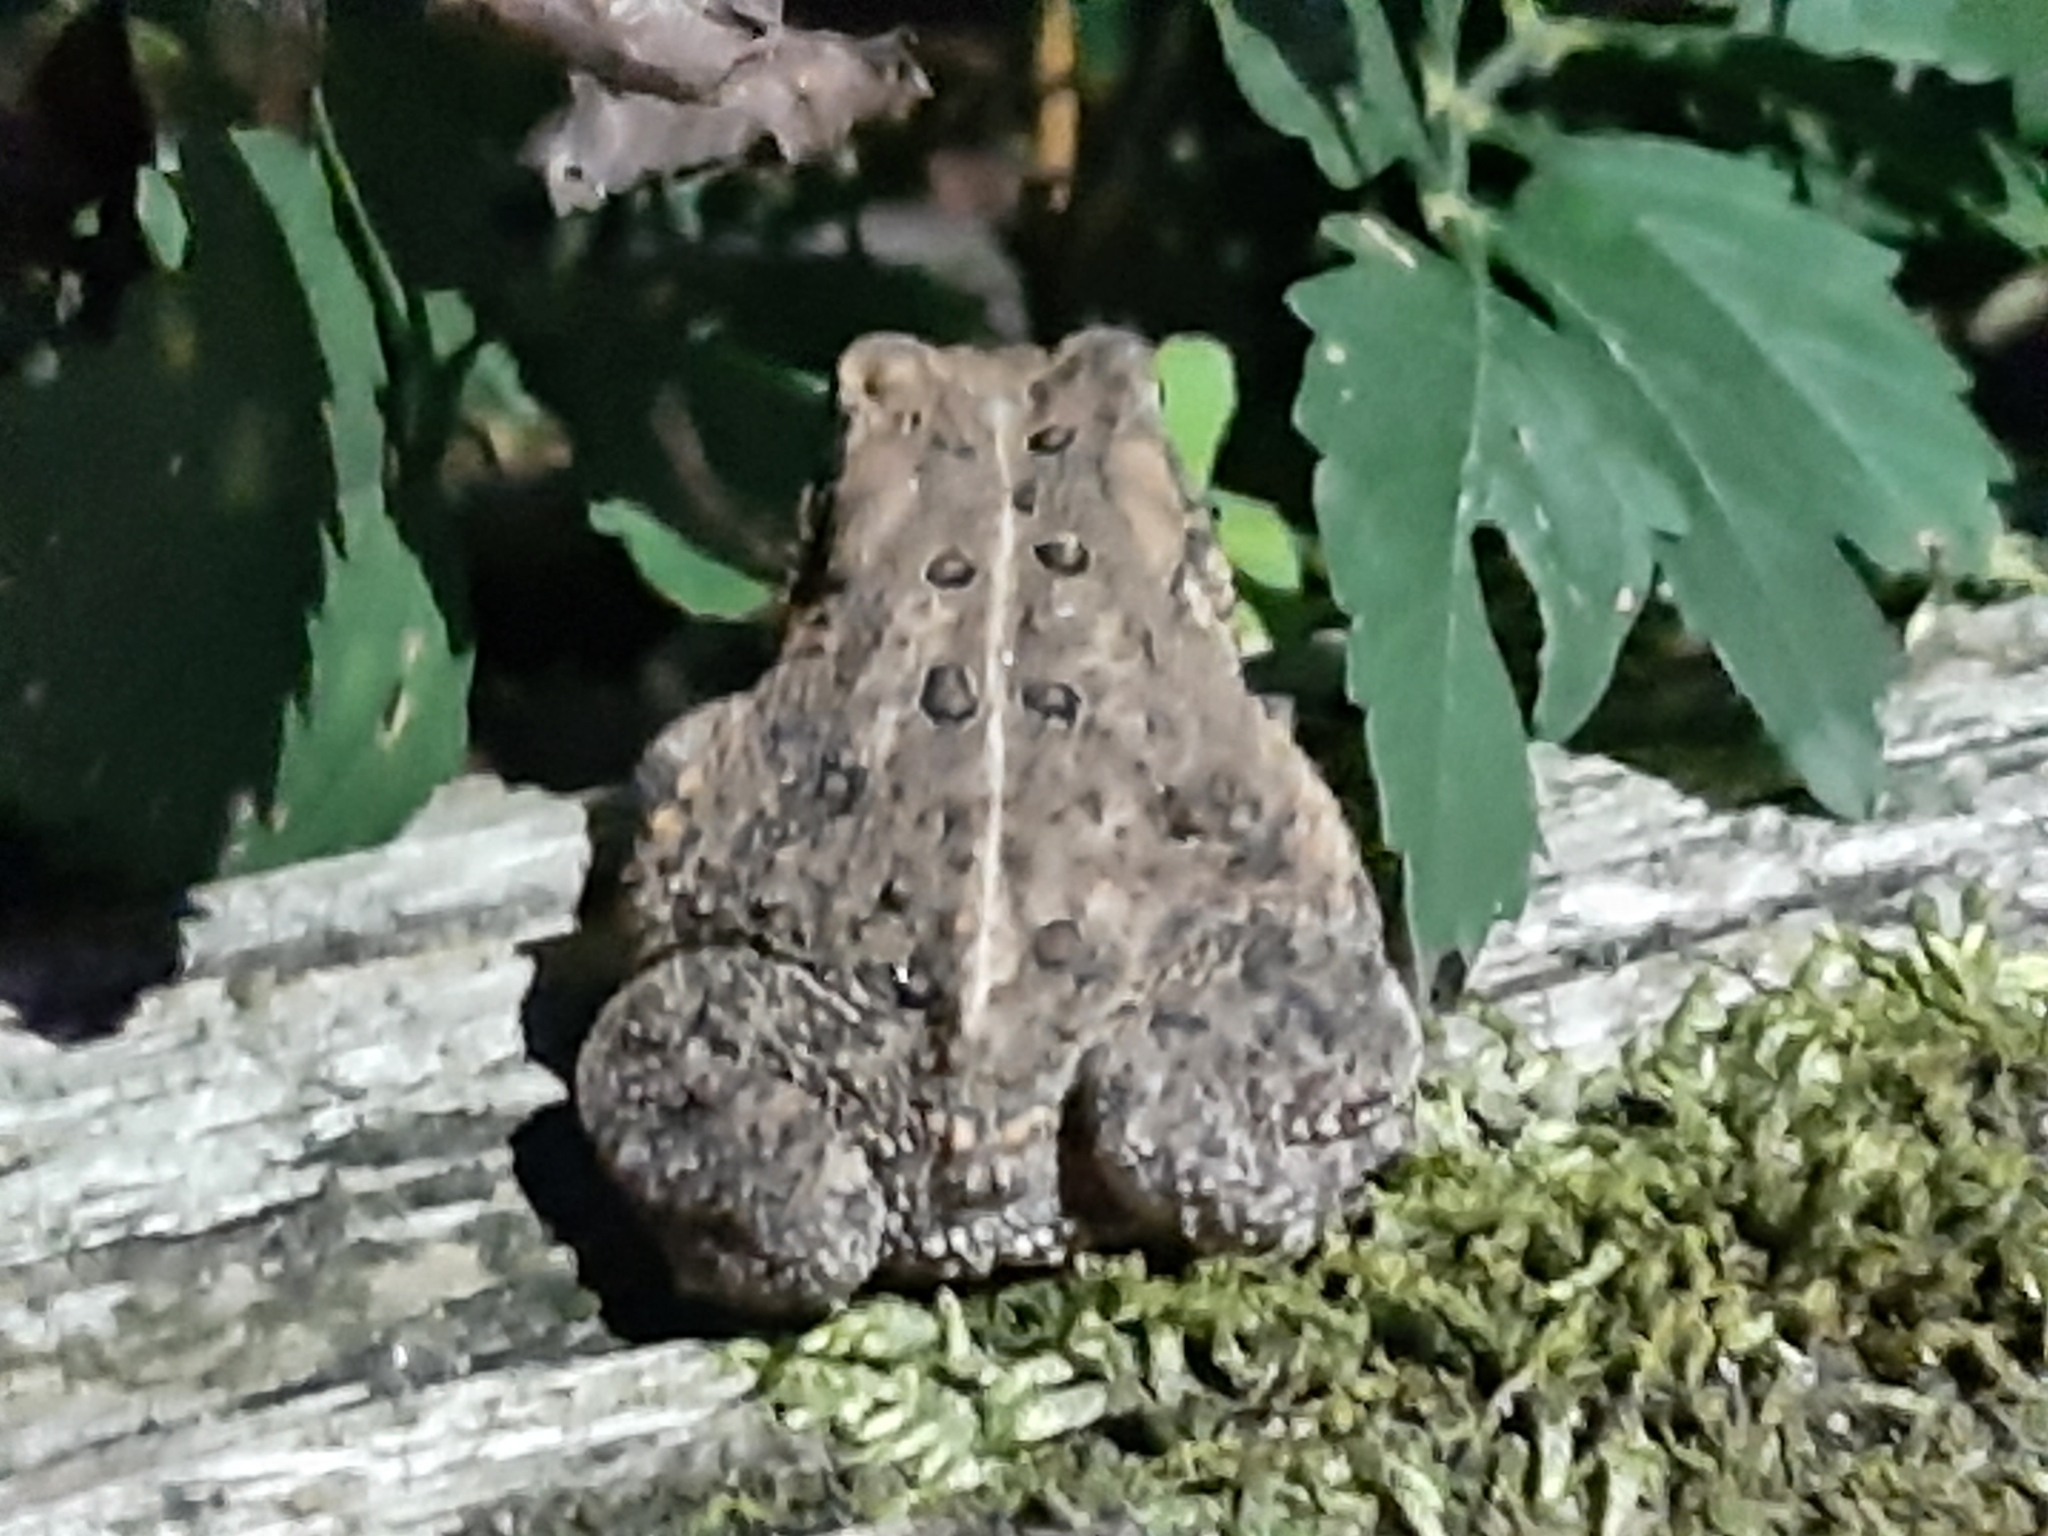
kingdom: Animalia
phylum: Chordata
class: Amphibia
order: Anura
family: Bufonidae
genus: Anaxyrus
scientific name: Anaxyrus americanus
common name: American toad
